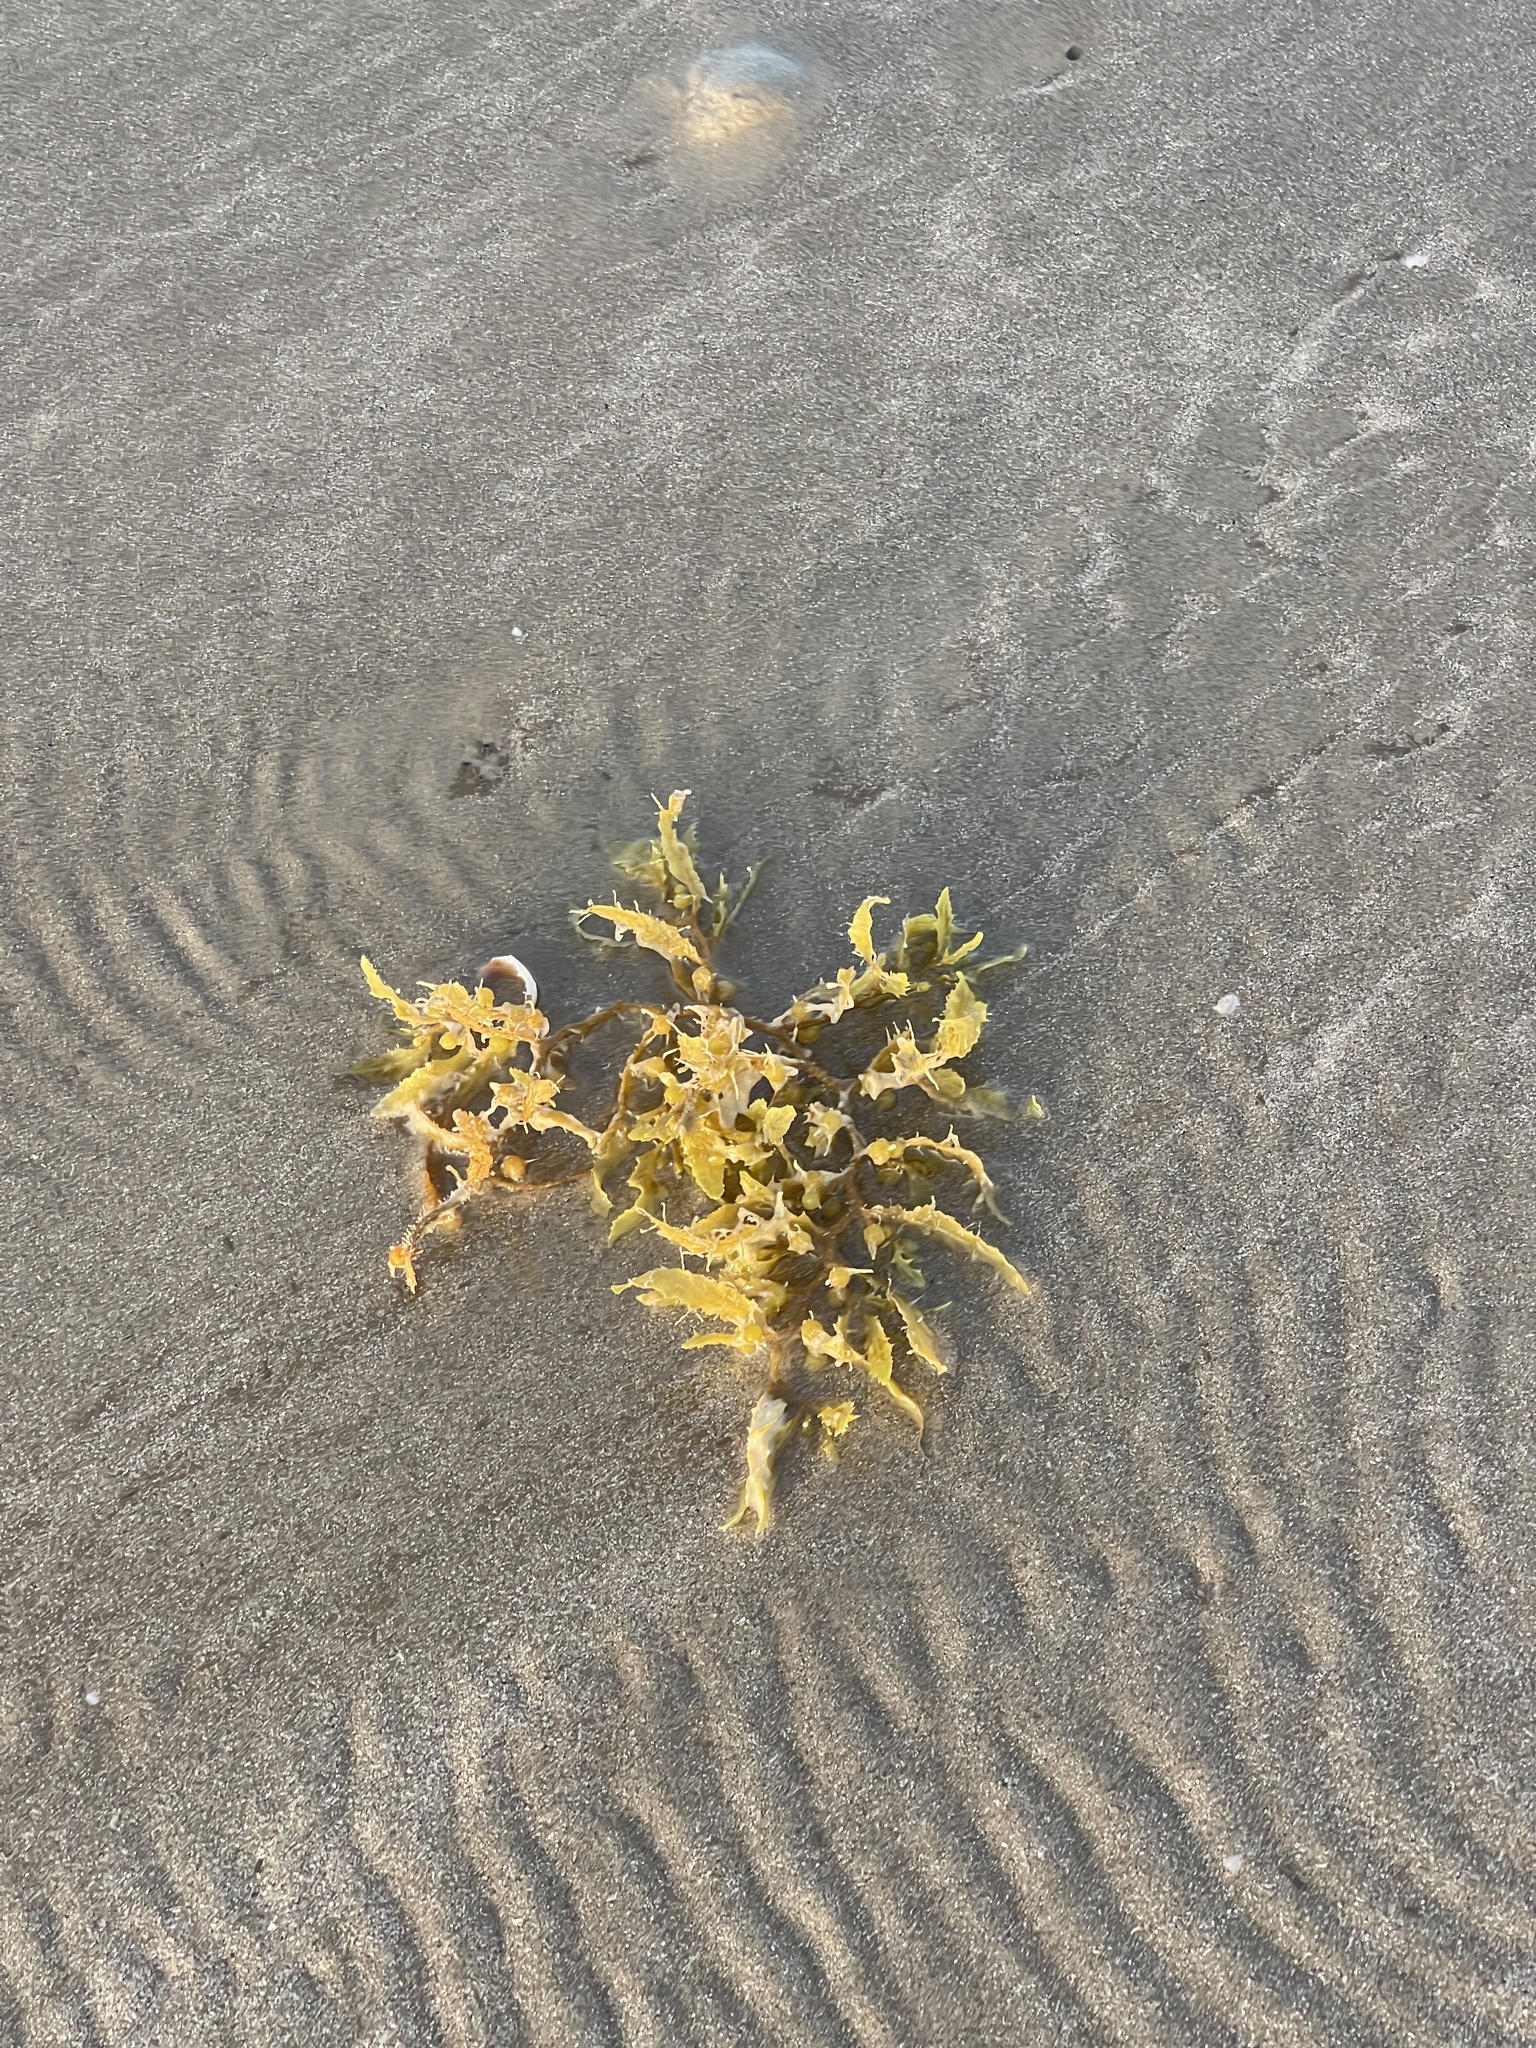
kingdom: Chromista
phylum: Ochrophyta
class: Phaeophyceae
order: Fucales
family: Sargassaceae
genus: Sargassum
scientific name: Sargassum fluitans
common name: Sargassum seaweed
